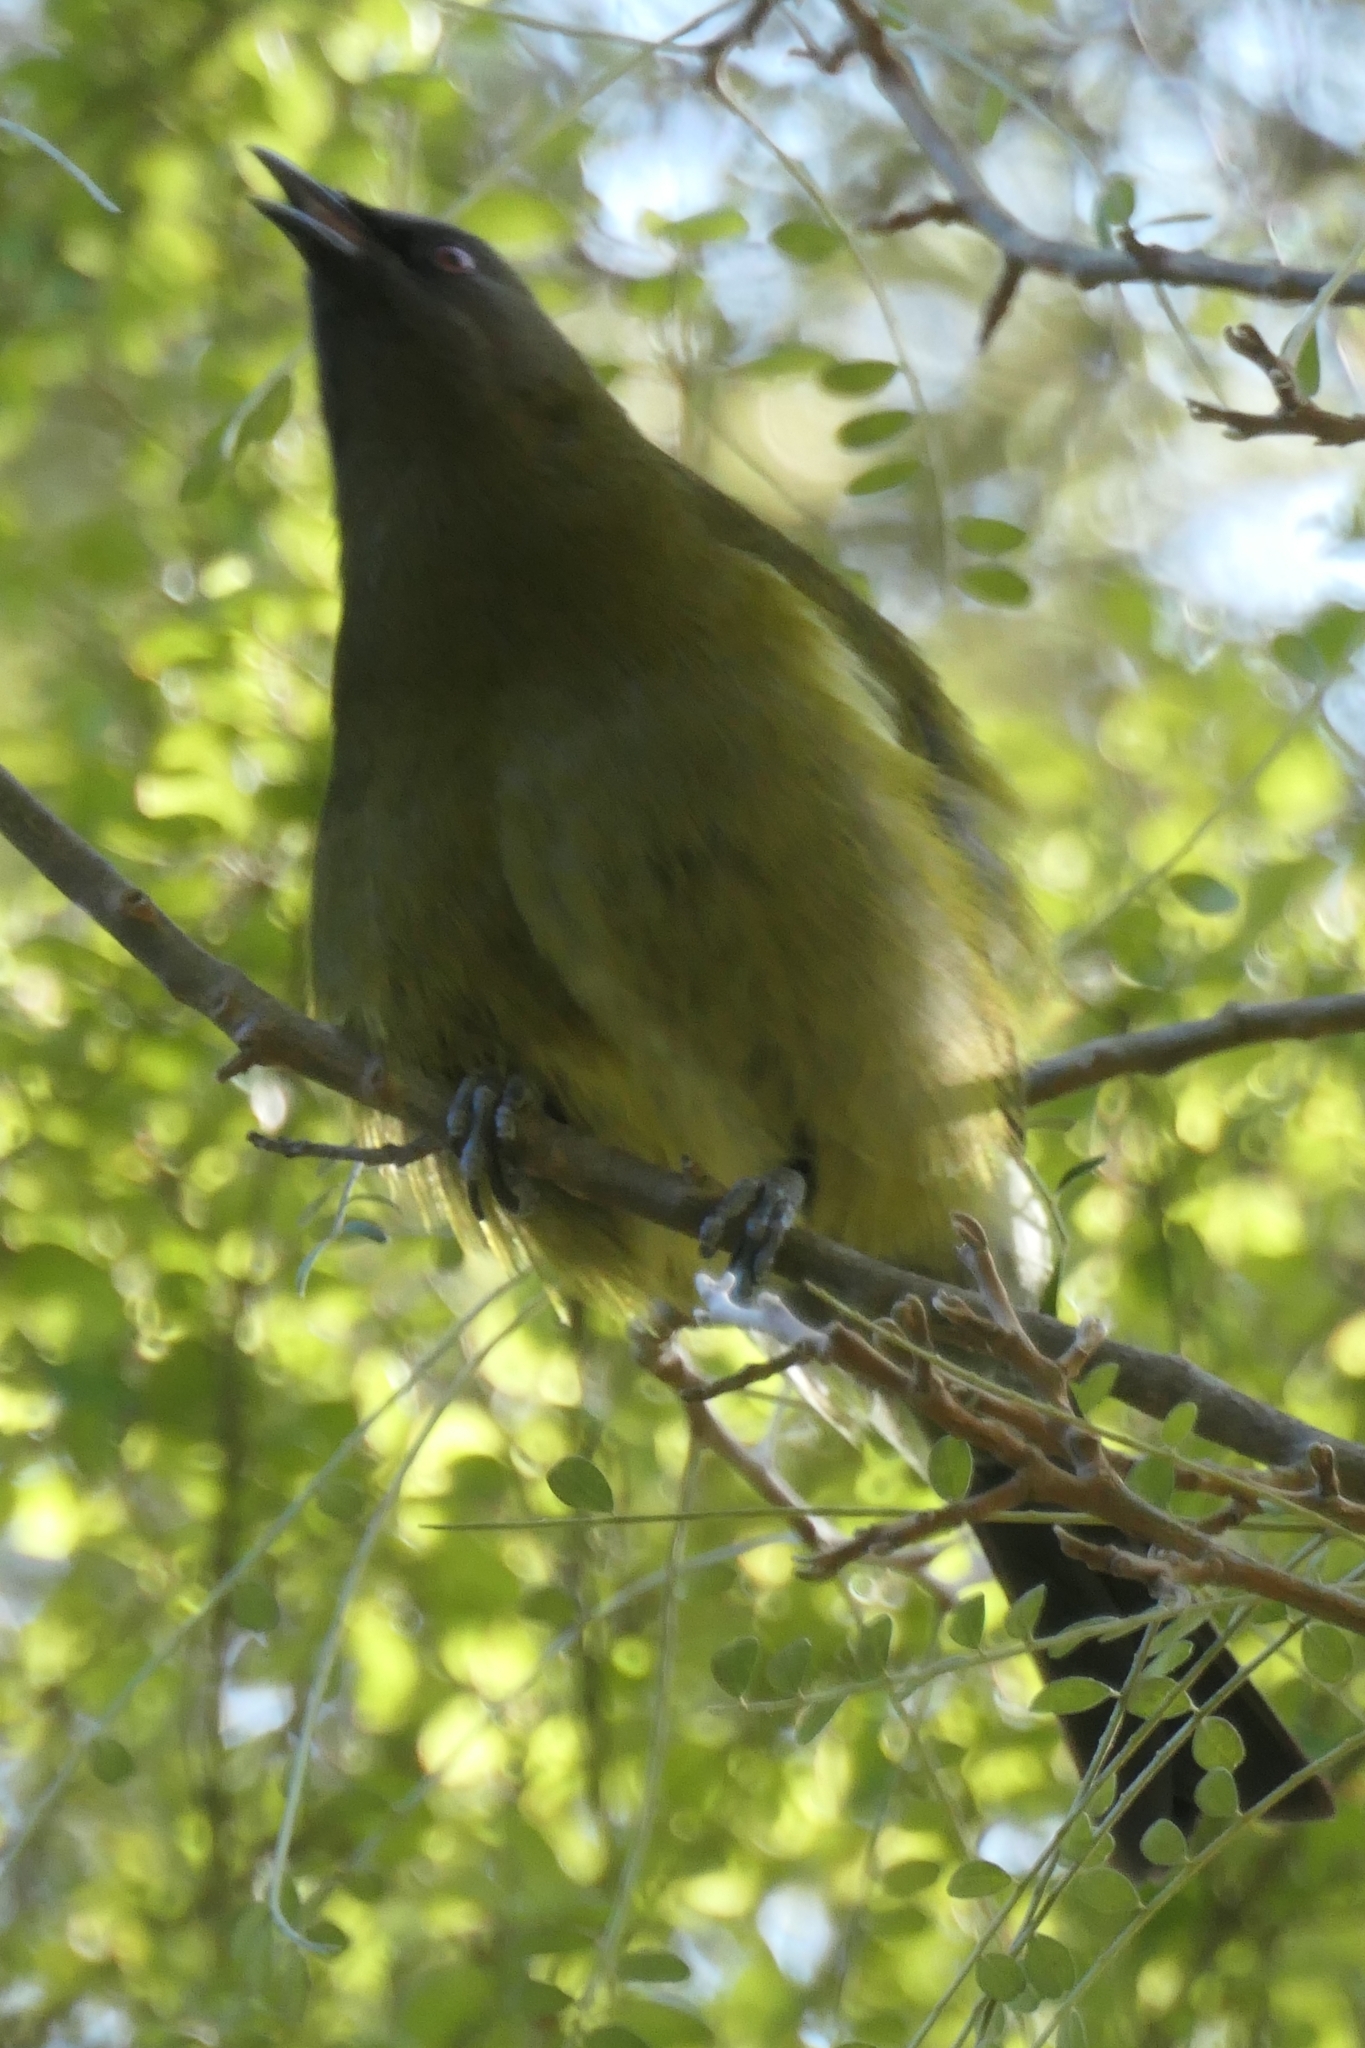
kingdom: Animalia
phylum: Chordata
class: Aves
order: Passeriformes
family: Meliphagidae
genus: Anthornis
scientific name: Anthornis melanura
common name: New zealand bellbird
